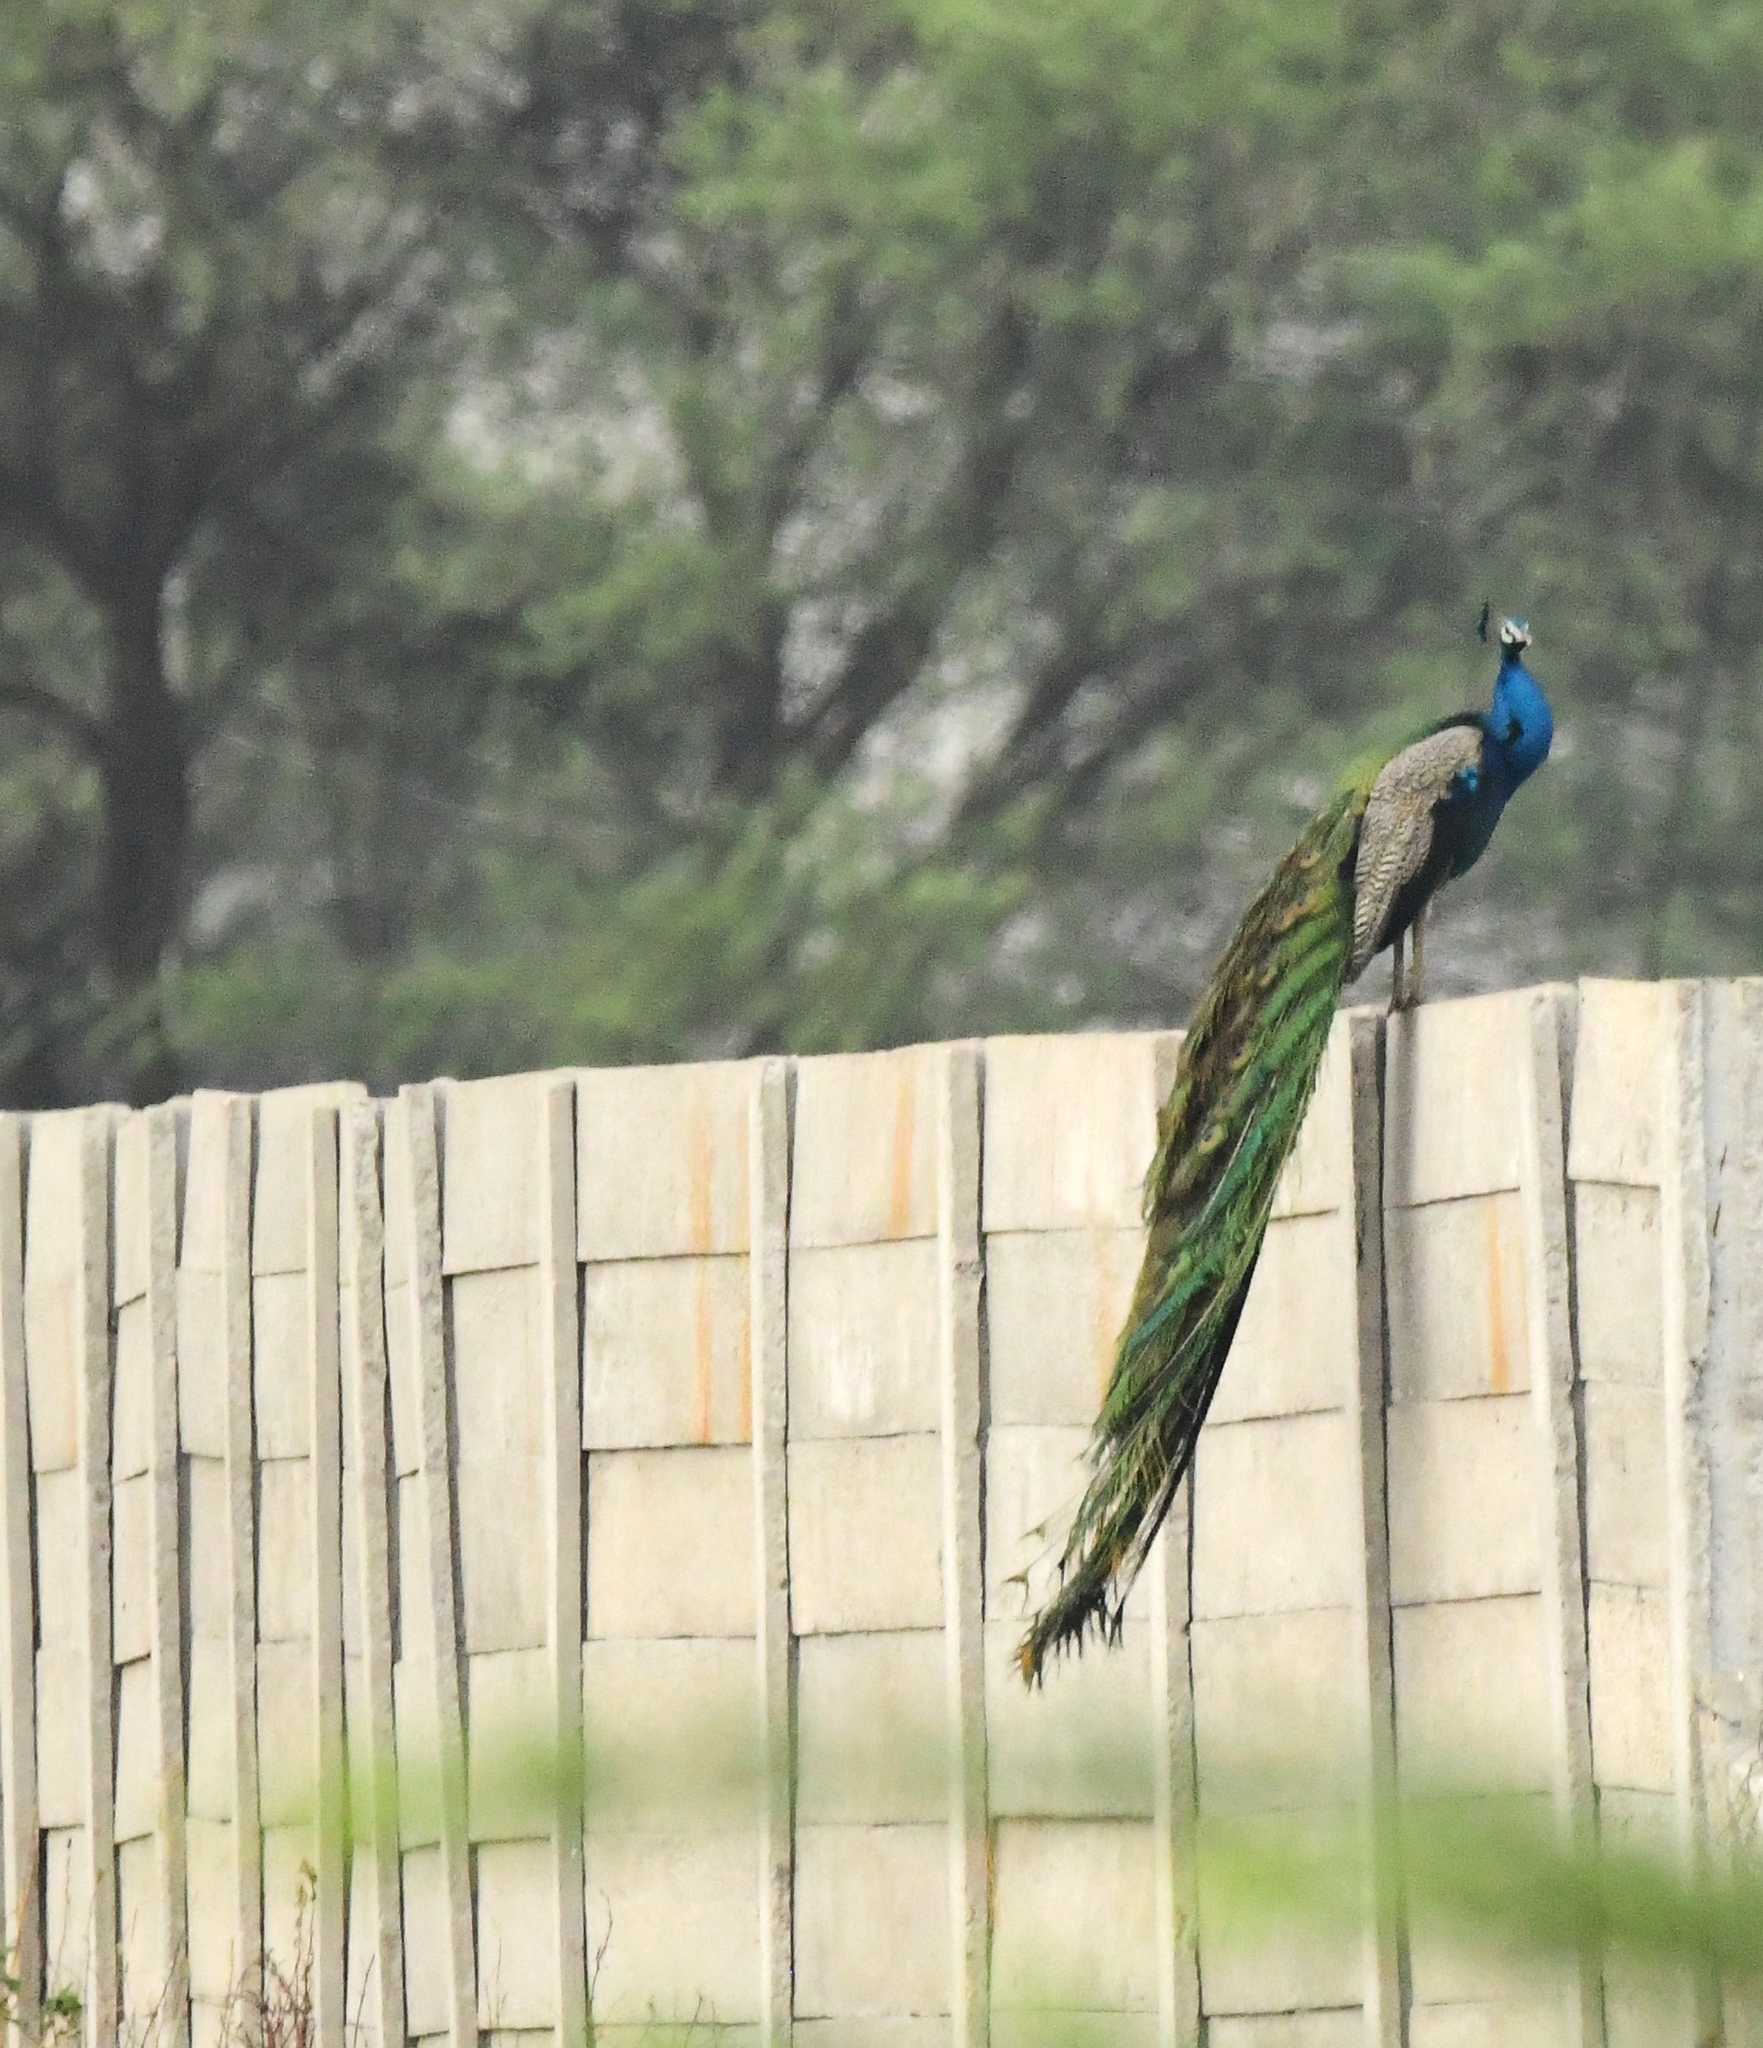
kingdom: Animalia
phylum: Chordata
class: Aves
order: Galliformes
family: Phasianidae
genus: Pavo
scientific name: Pavo cristatus
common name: Indian peafowl
